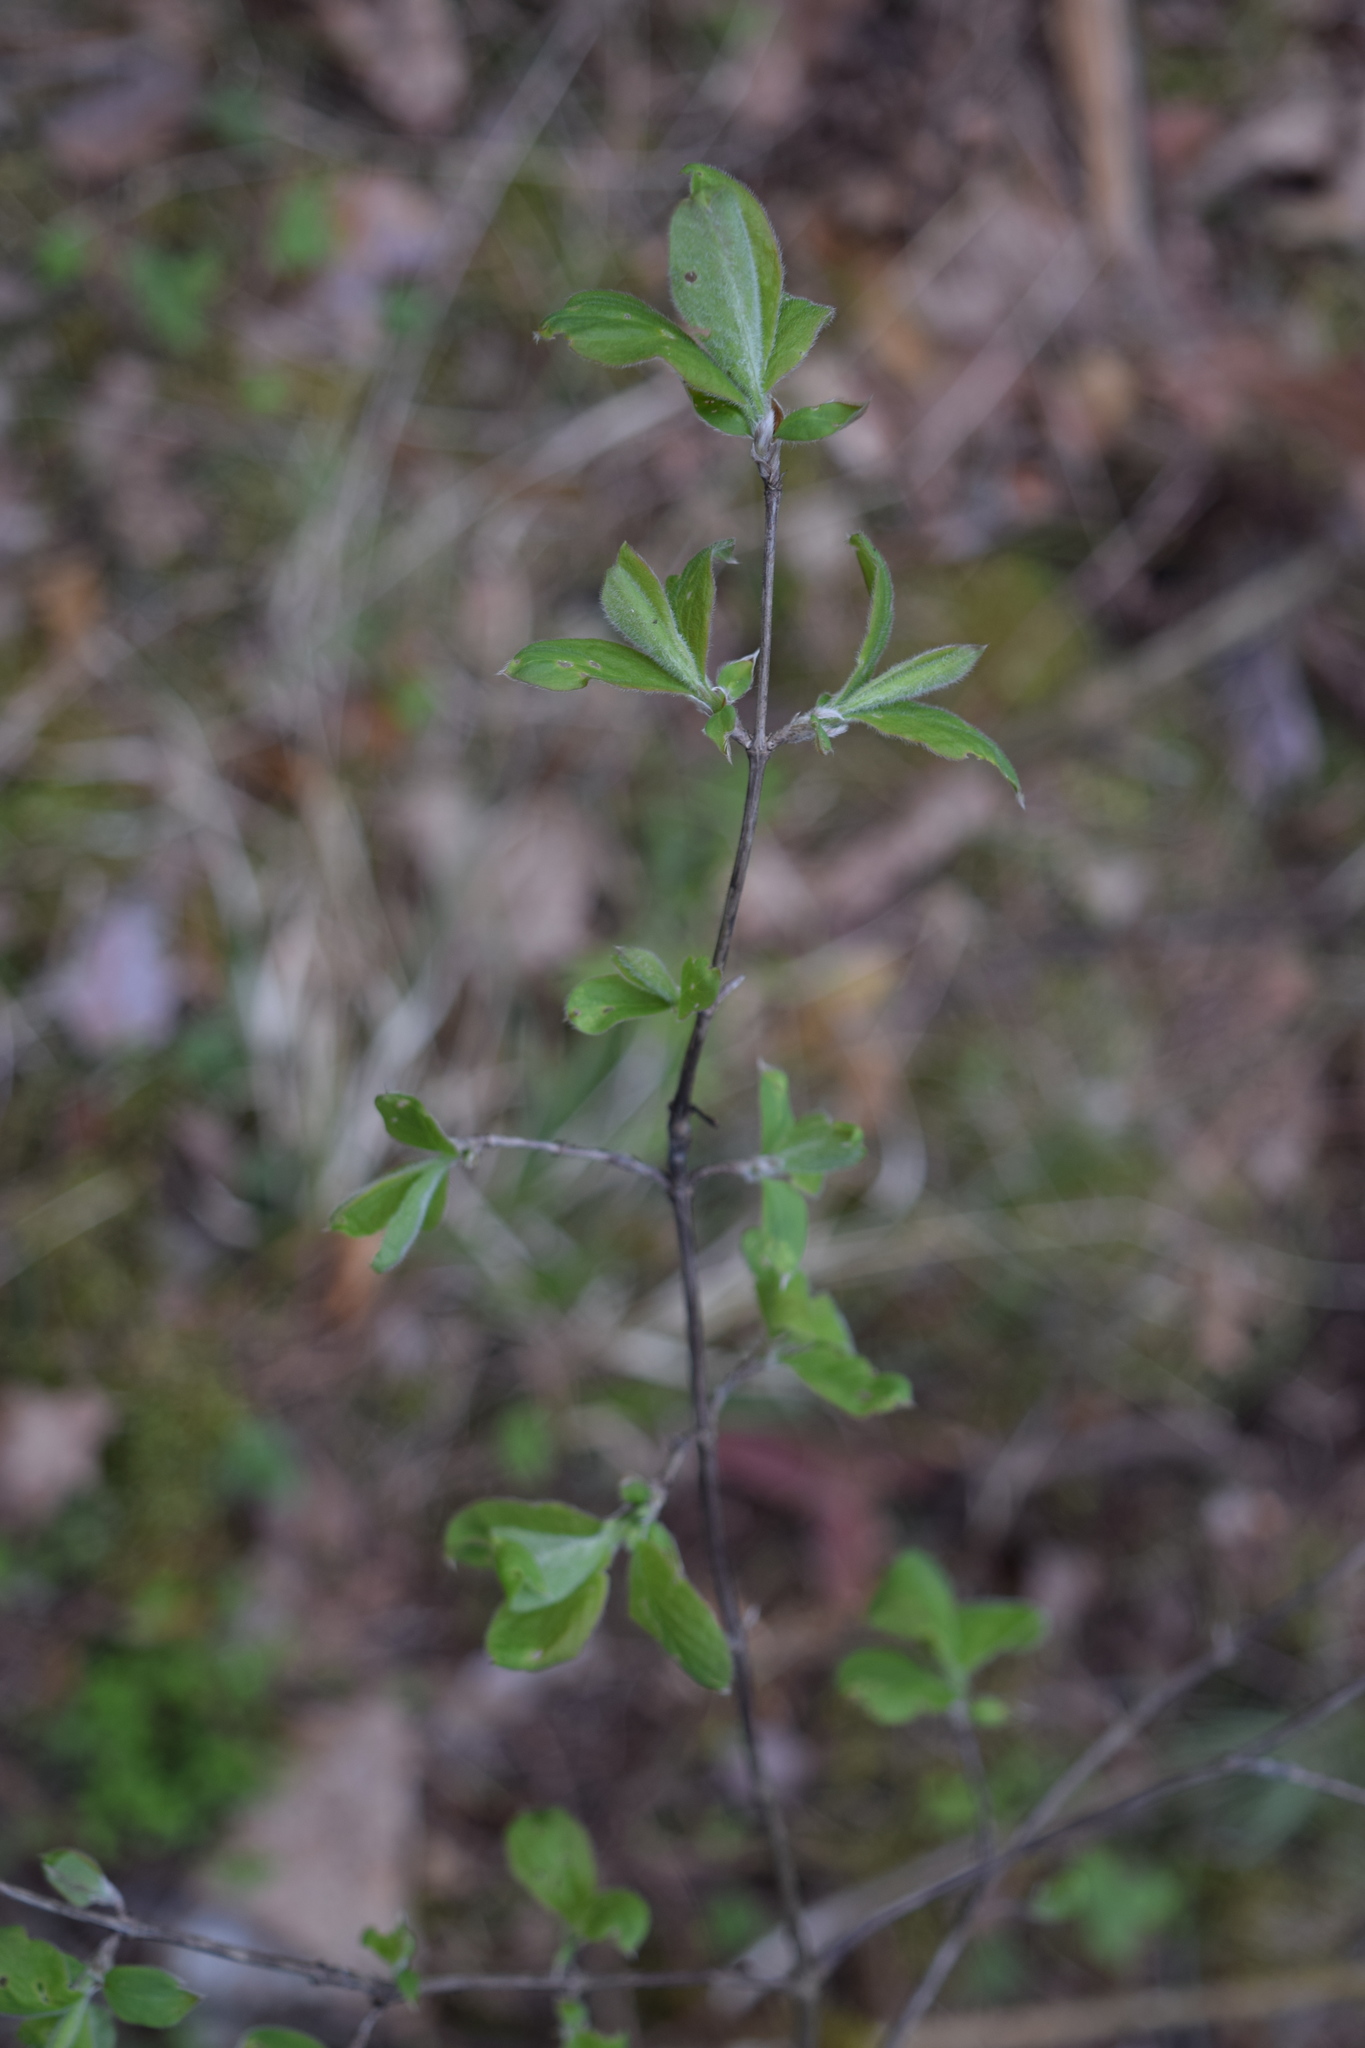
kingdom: Plantae
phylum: Tracheophyta
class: Magnoliopsida
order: Dipsacales
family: Caprifoliaceae
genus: Lonicera
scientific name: Lonicera xylosteum
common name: Fly honeysuckle
